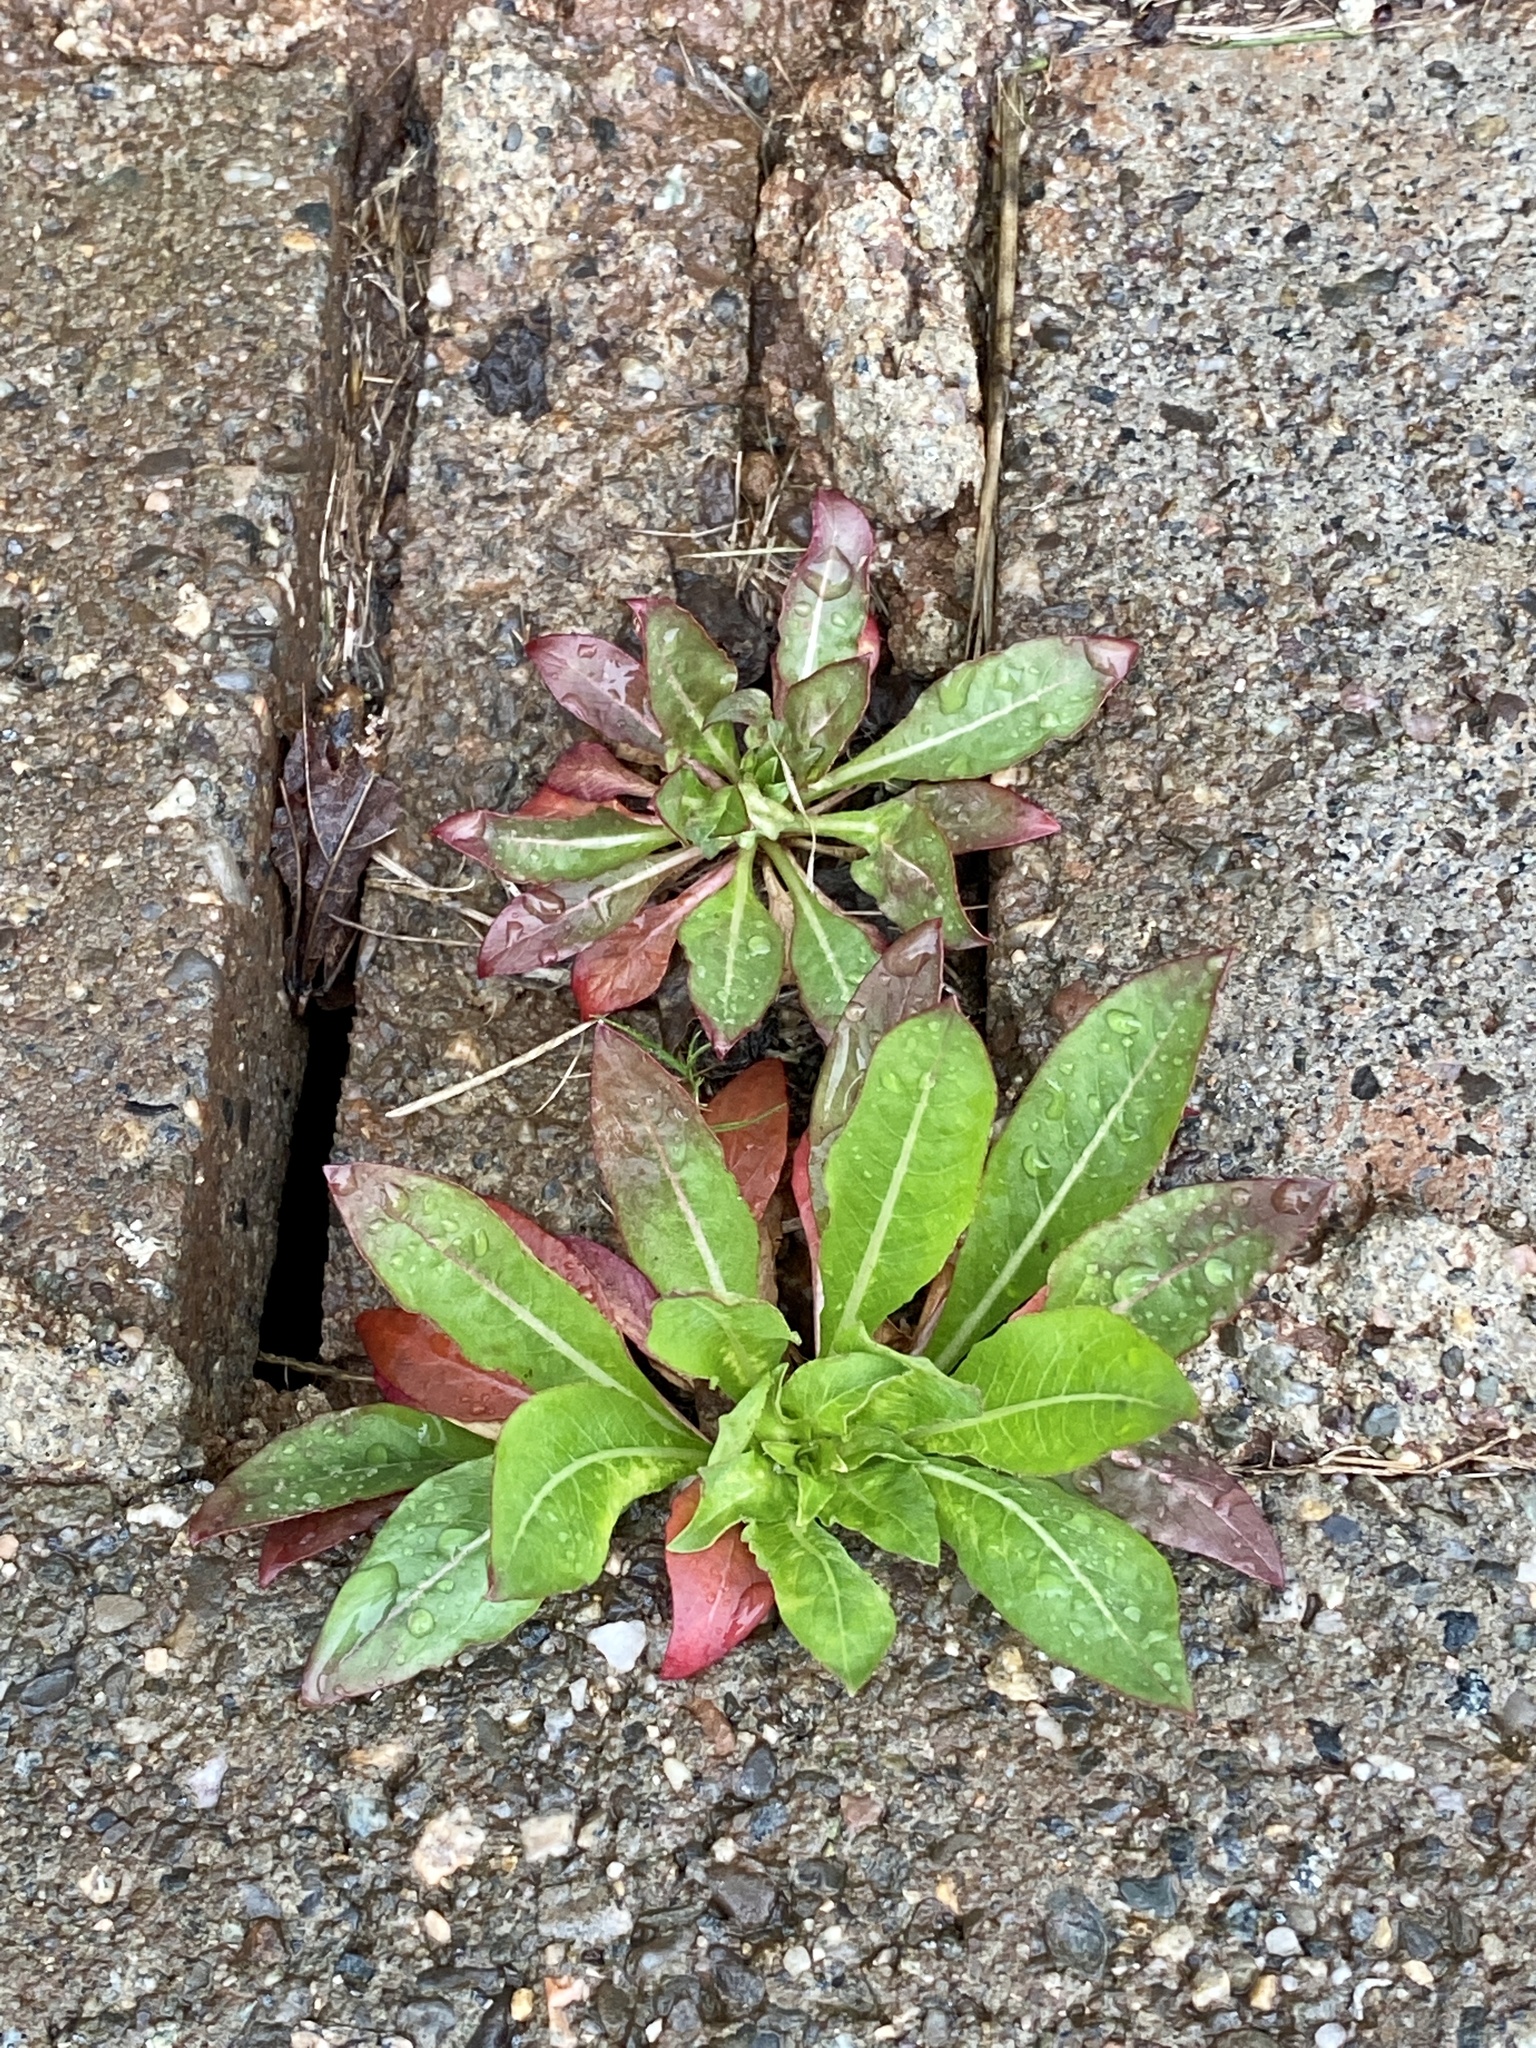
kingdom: Plantae
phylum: Tracheophyta
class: Magnoliopsida
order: Myrtales
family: Onagraceae
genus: Oenothera
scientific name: Oenothera biennis
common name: Common evening-primrose
